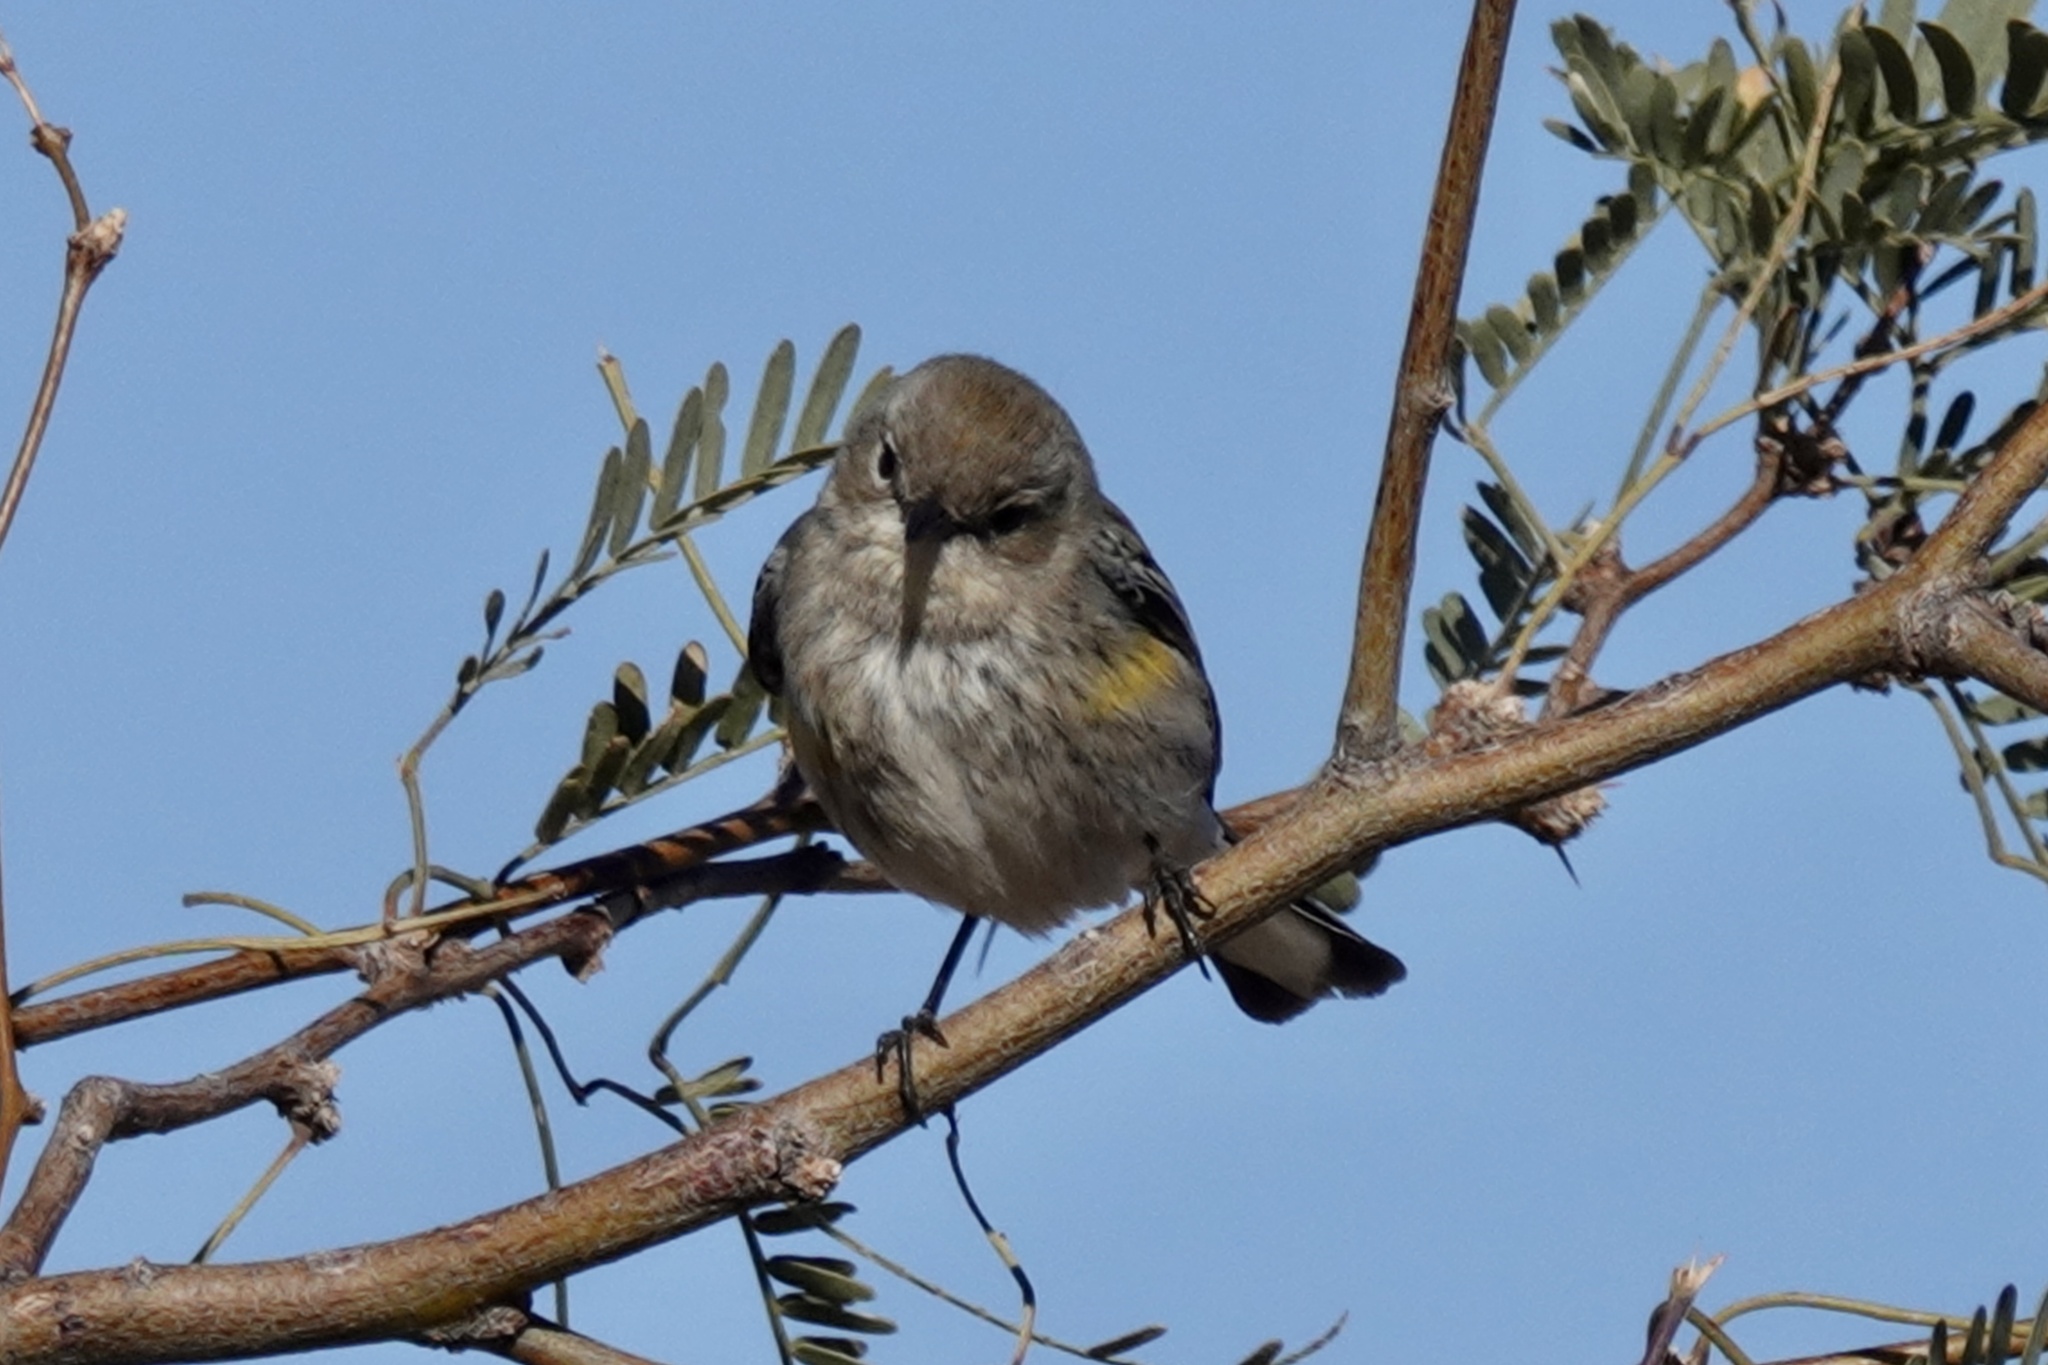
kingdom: Animalia
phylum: Chordata
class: Aves
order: Passeriformes
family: Parulidae
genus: Setophaga
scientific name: Setophaga coronata
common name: Myrtle warbler
